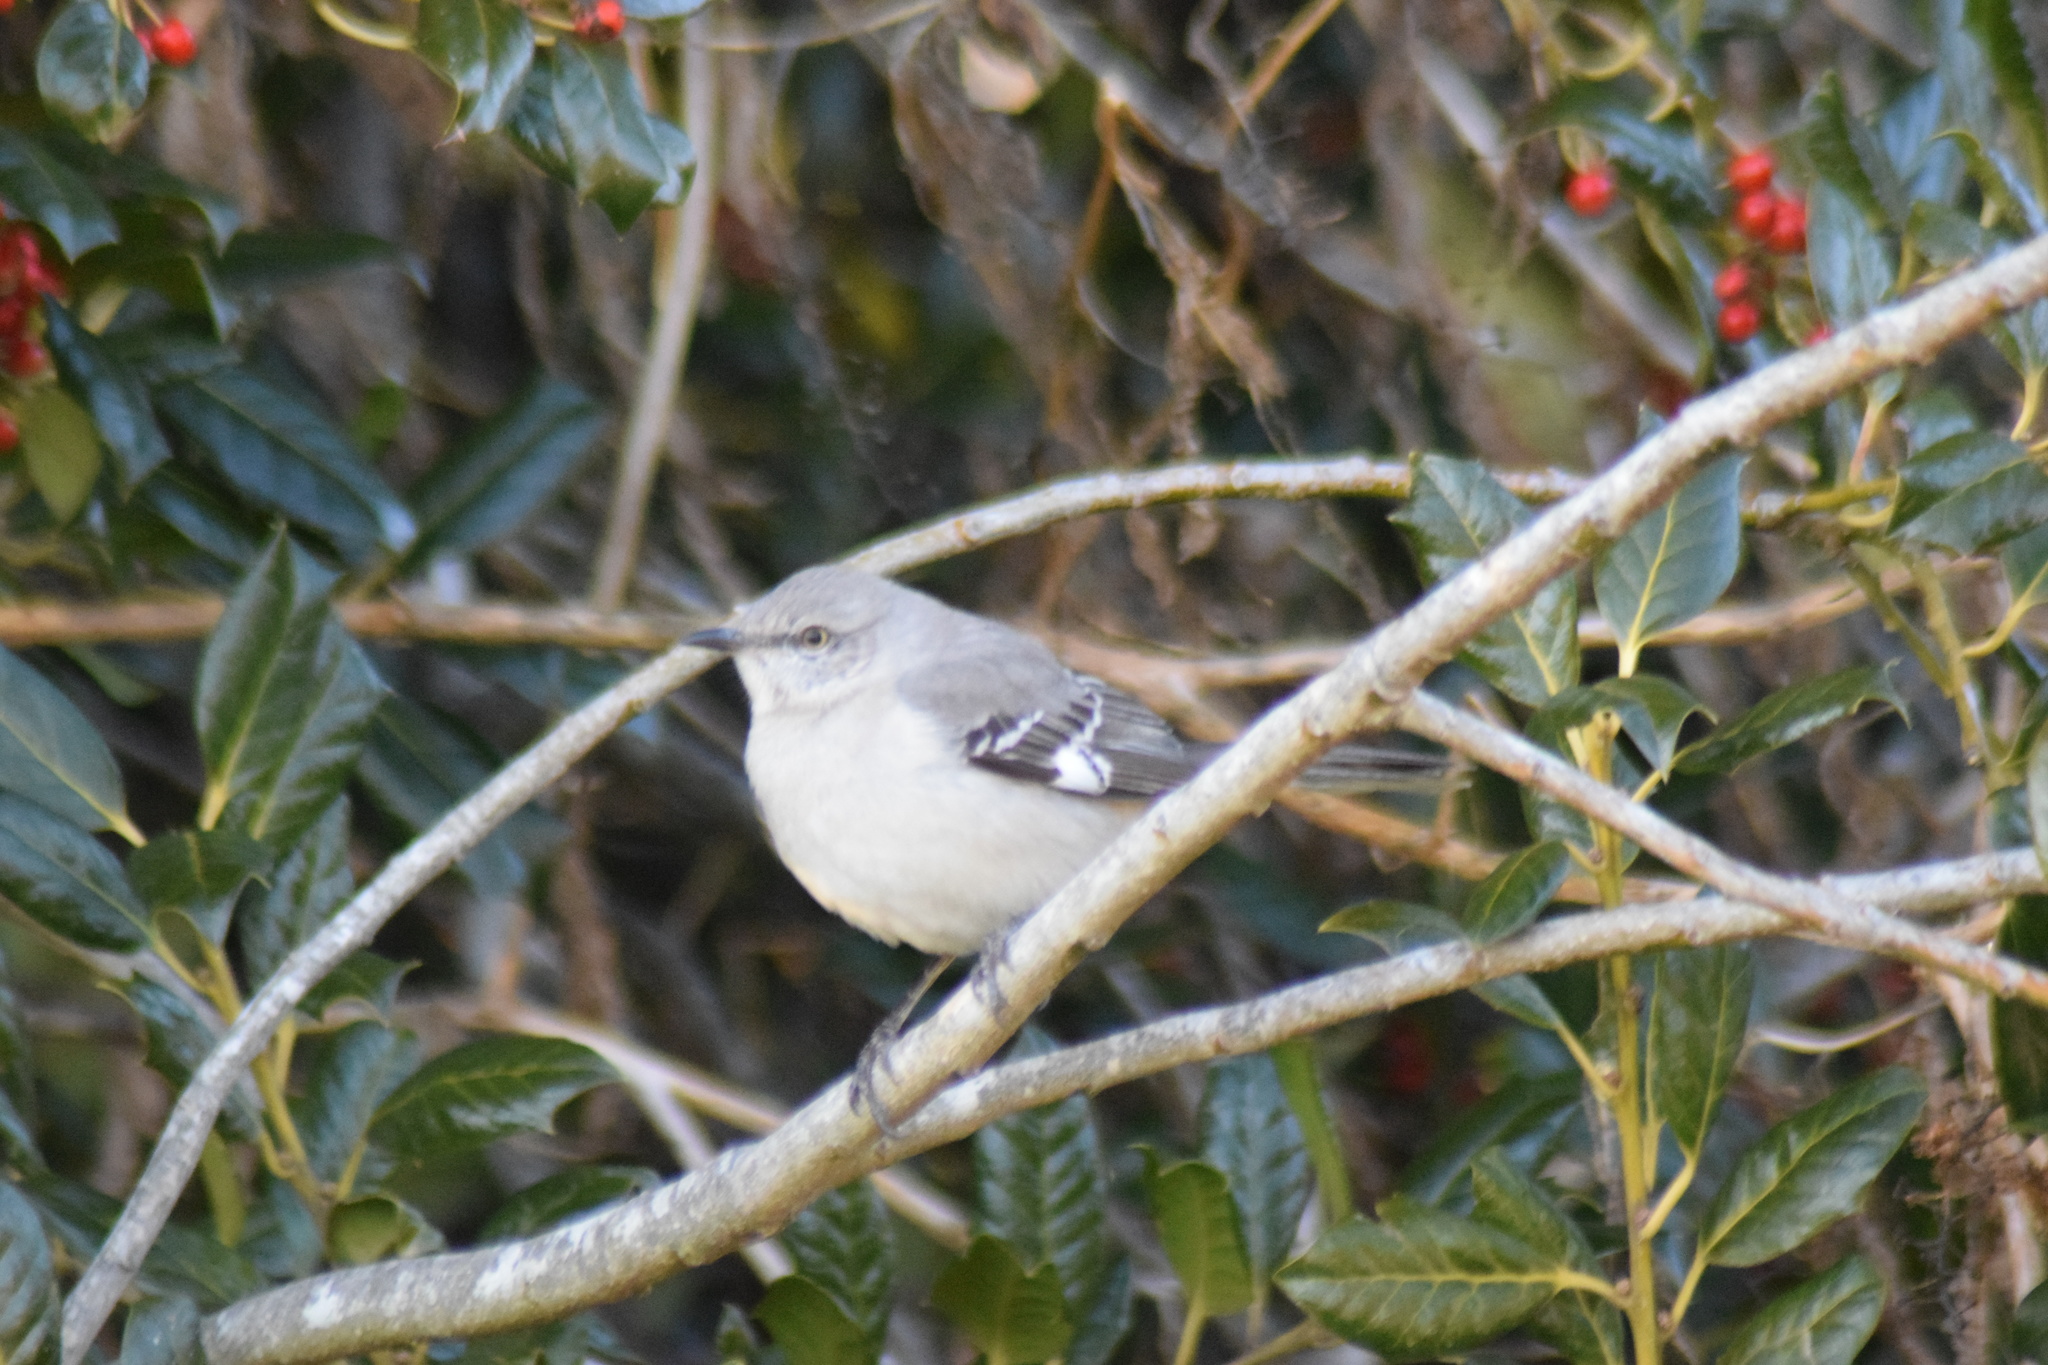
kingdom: Animalia
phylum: Chordata
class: Aves
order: Passeriformes
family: Mimidae
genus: Mimus
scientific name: Mimus polyglottos
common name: Northern mockingbird
